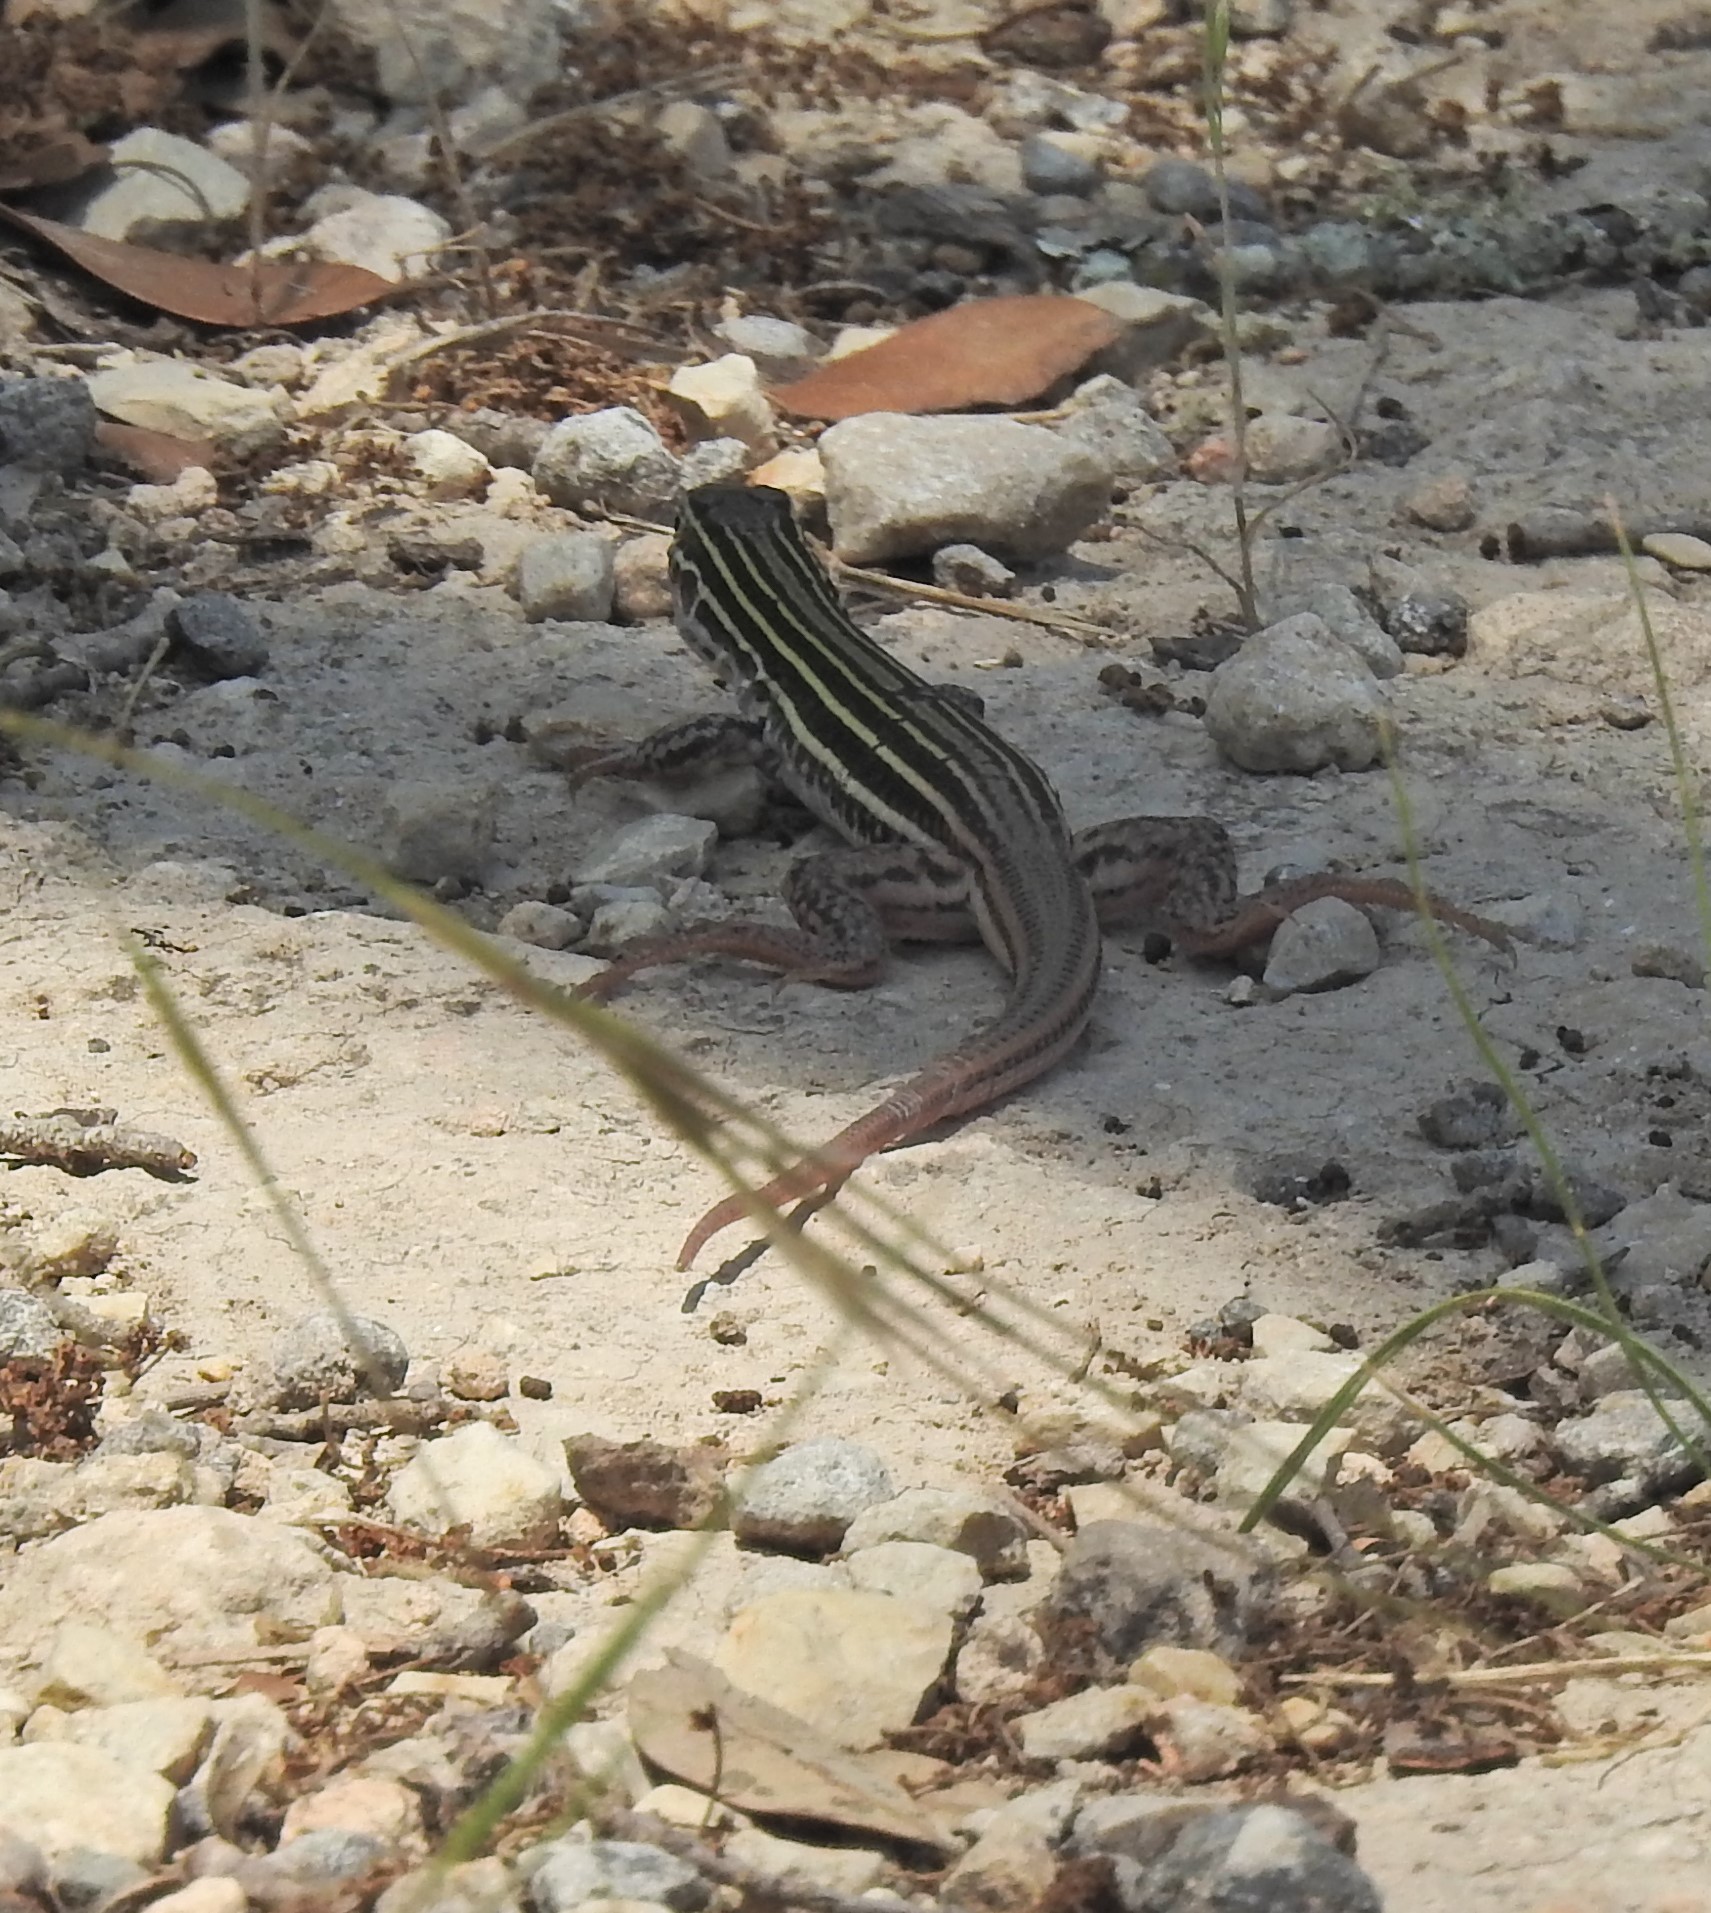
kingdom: Animalia
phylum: Chordata
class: Squamata
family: Teiidae
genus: Aspidoscelis
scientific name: Aspidoscelis gularis
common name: Eastern spotted whiptail
